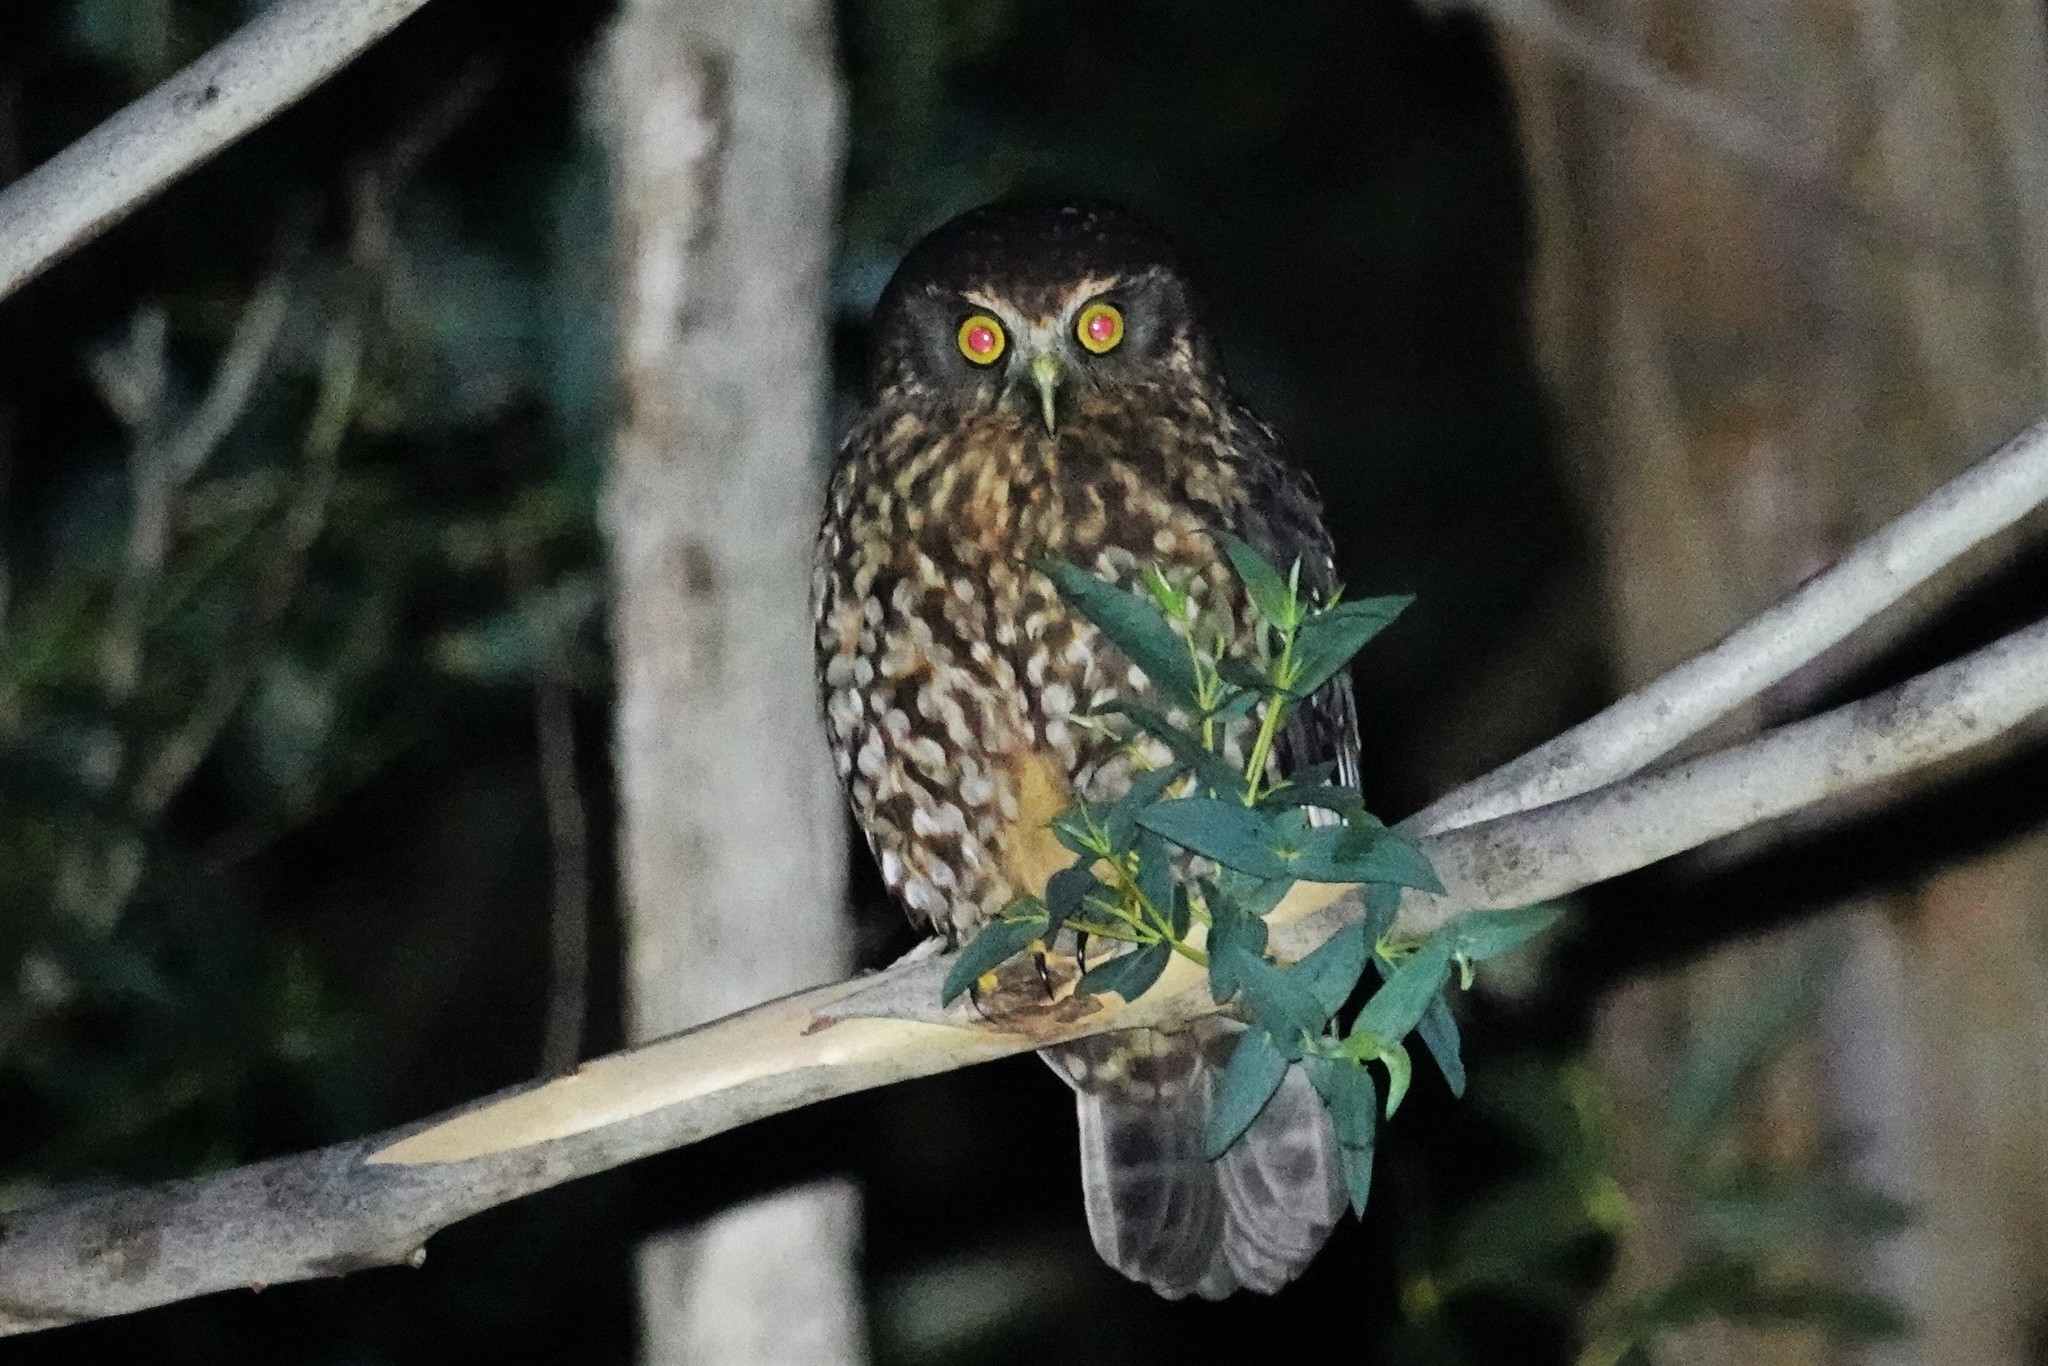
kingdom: Animalia
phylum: Chordata
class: Aves
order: Strigiformes
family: Strigidae
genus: Ninox
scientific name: Ninox novaeseelandiae
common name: Morepork
